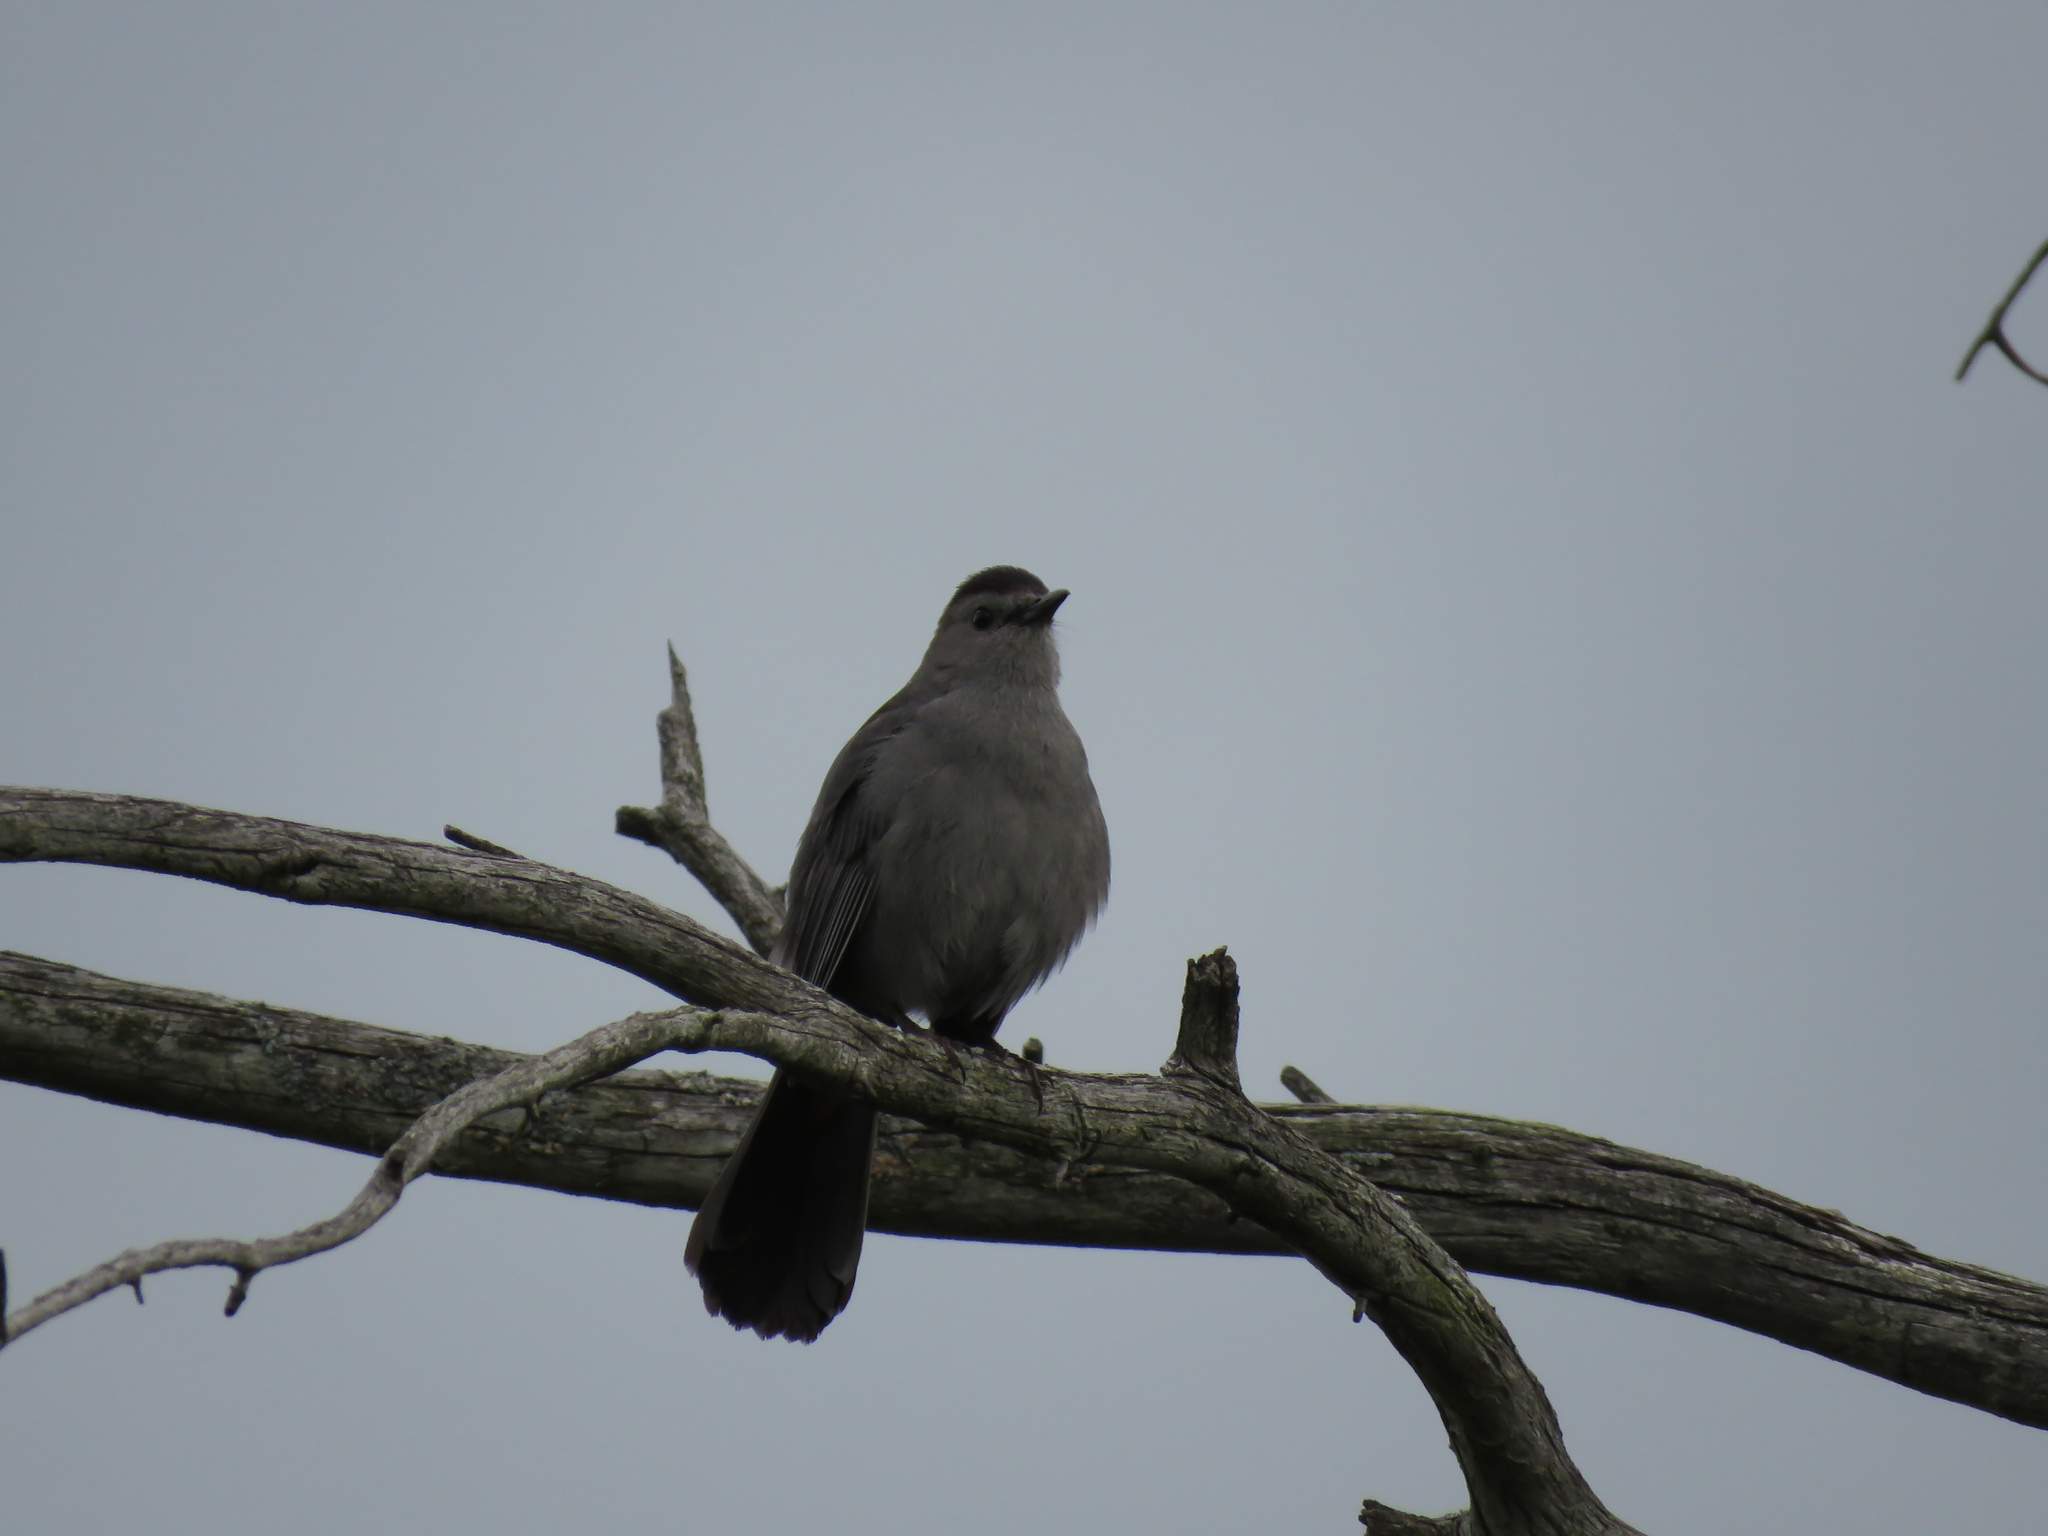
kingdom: Animalia
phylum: Chordata
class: Aves
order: Passeriformes
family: Mimidae
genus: Dumetella
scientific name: Dumetella carolinensis
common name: Gray catbird
